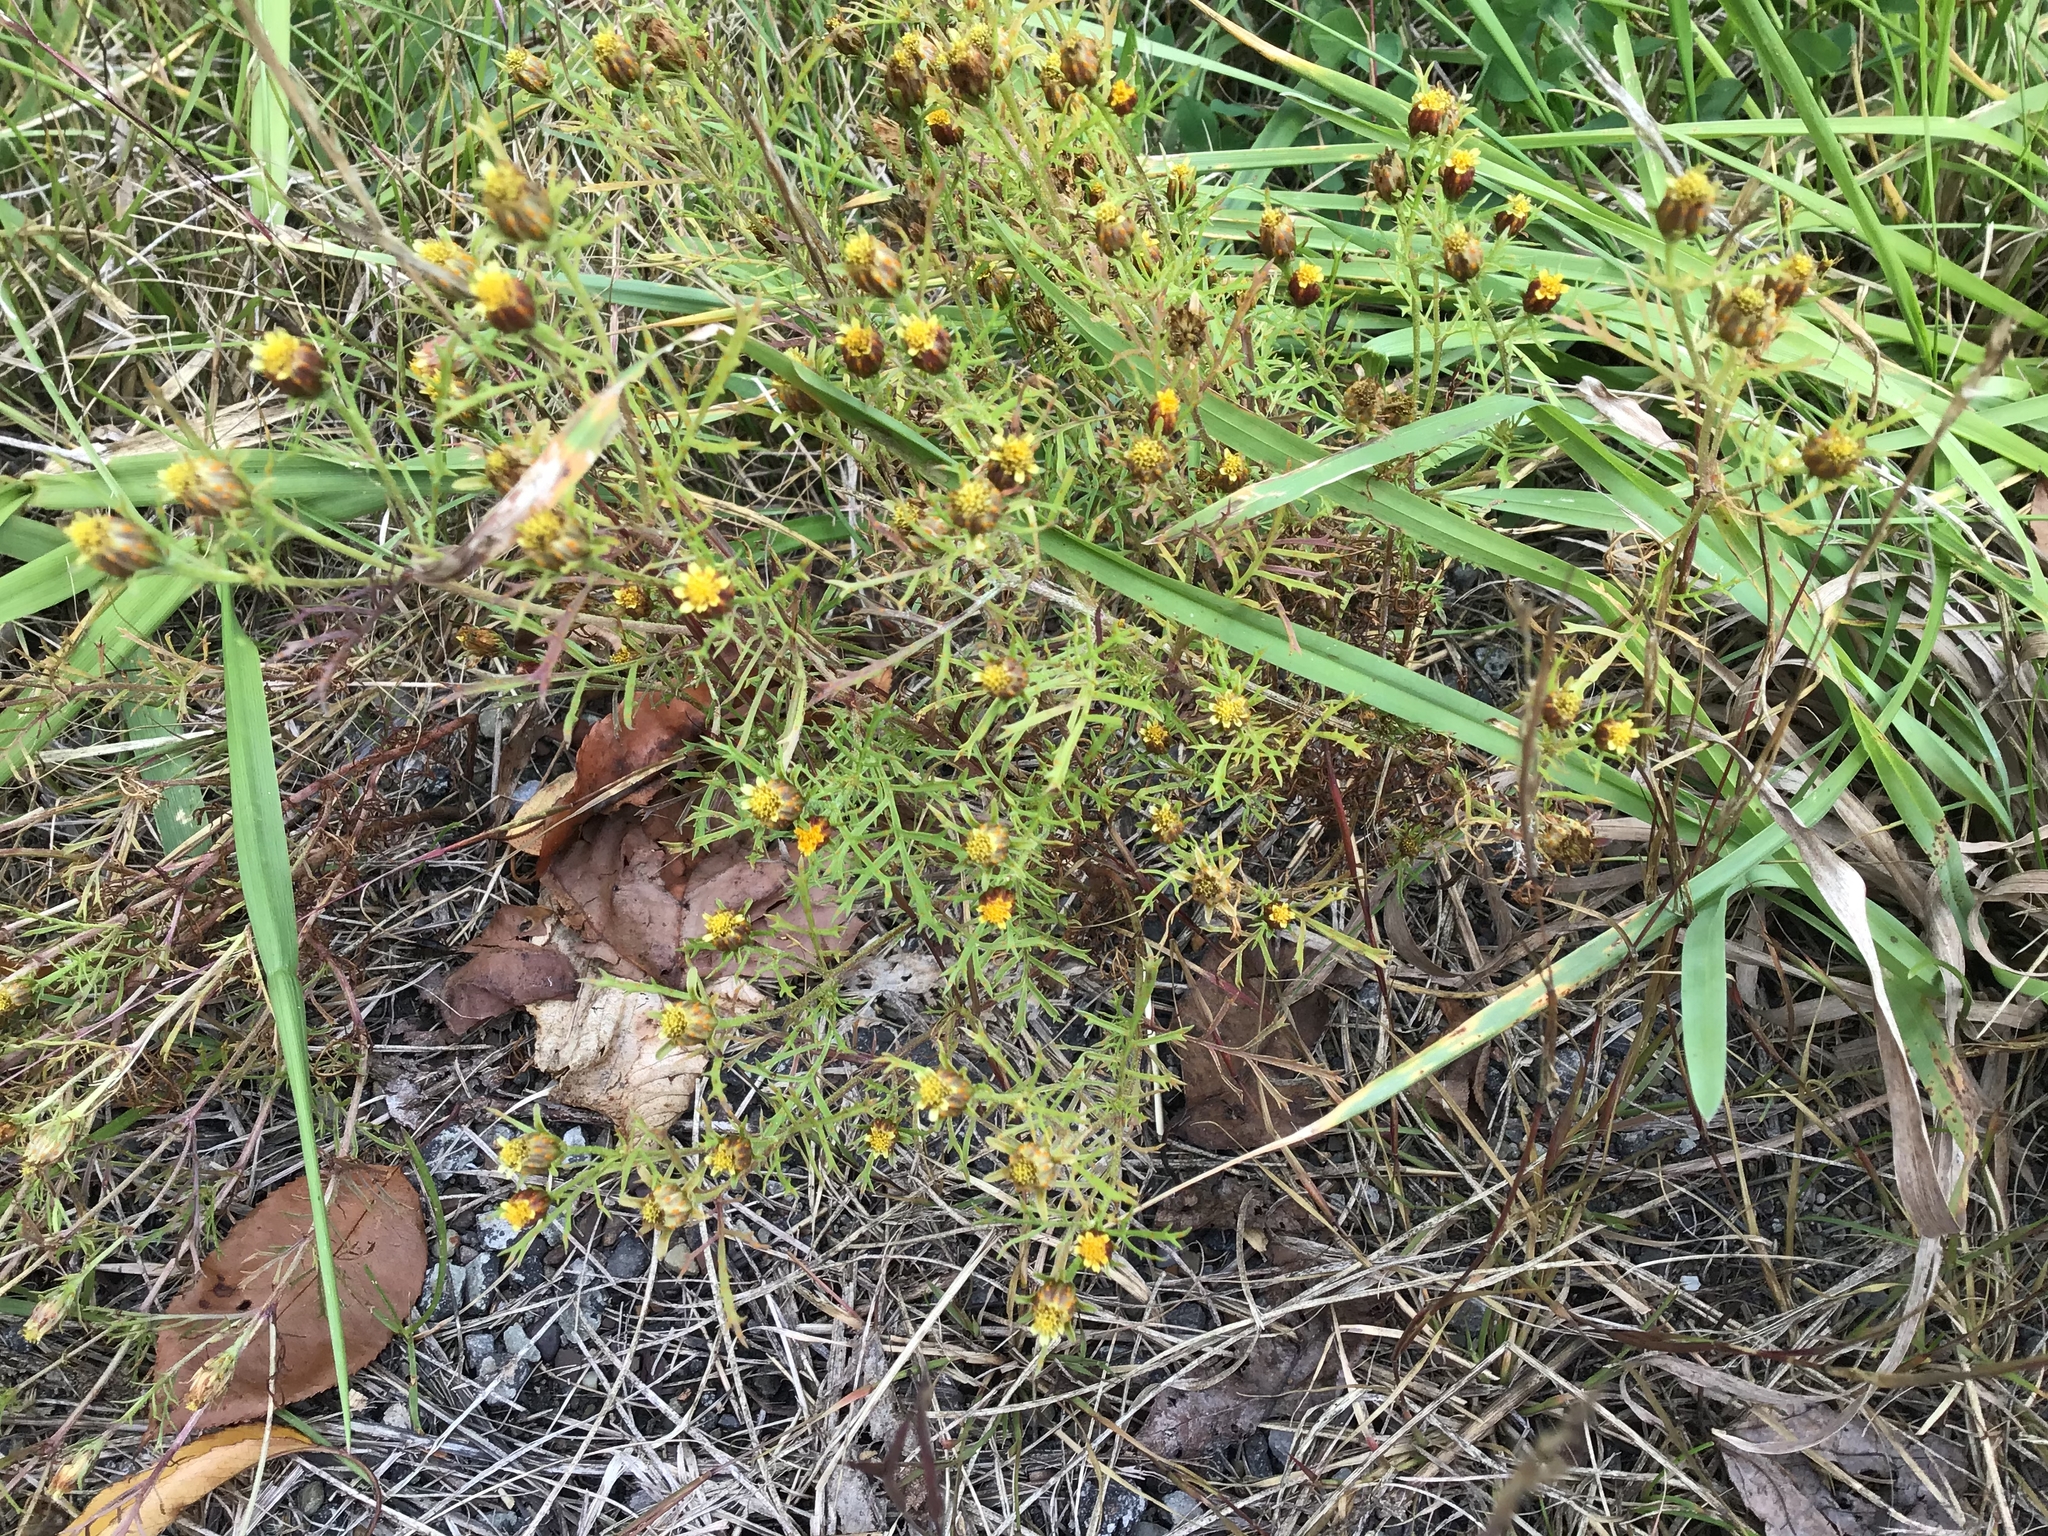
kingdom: Plantae
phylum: Tracheophyta
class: Magnoliopsida
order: Asterales
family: Asteraceae
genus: Dyssodia
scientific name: Dyssodia papposa
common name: Dogweed
